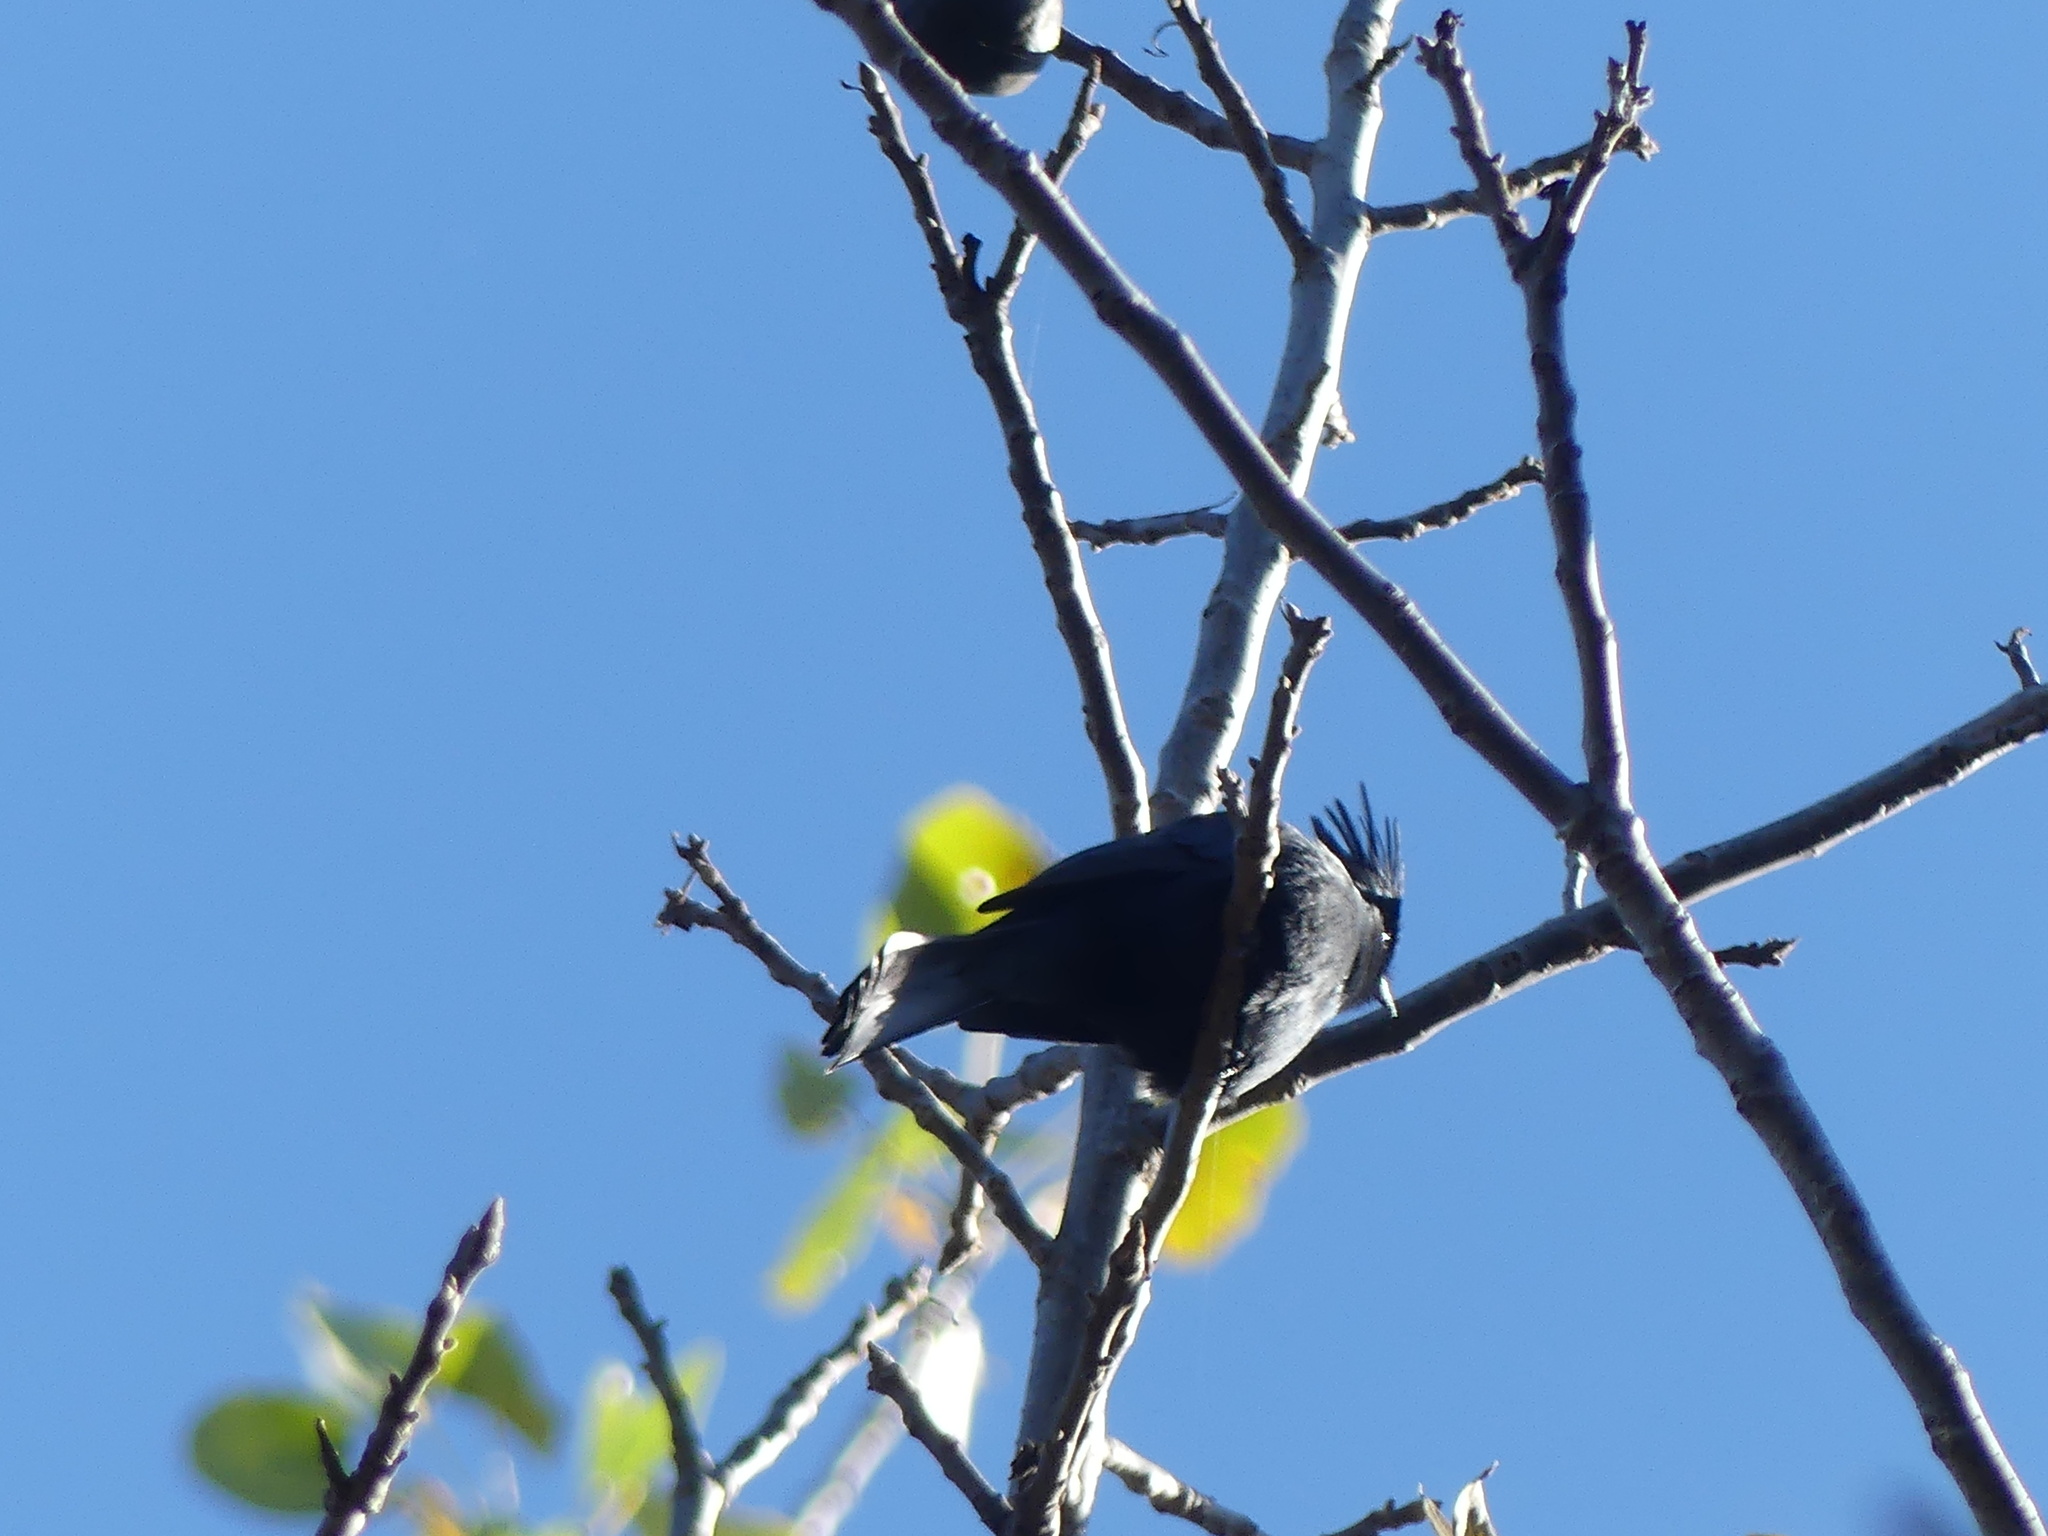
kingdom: Animalia
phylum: Chordata
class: Aves
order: Passeriformes
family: Ptilogonatidae
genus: Phainopepla
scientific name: Phainopepla nitens
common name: Phainopepla
